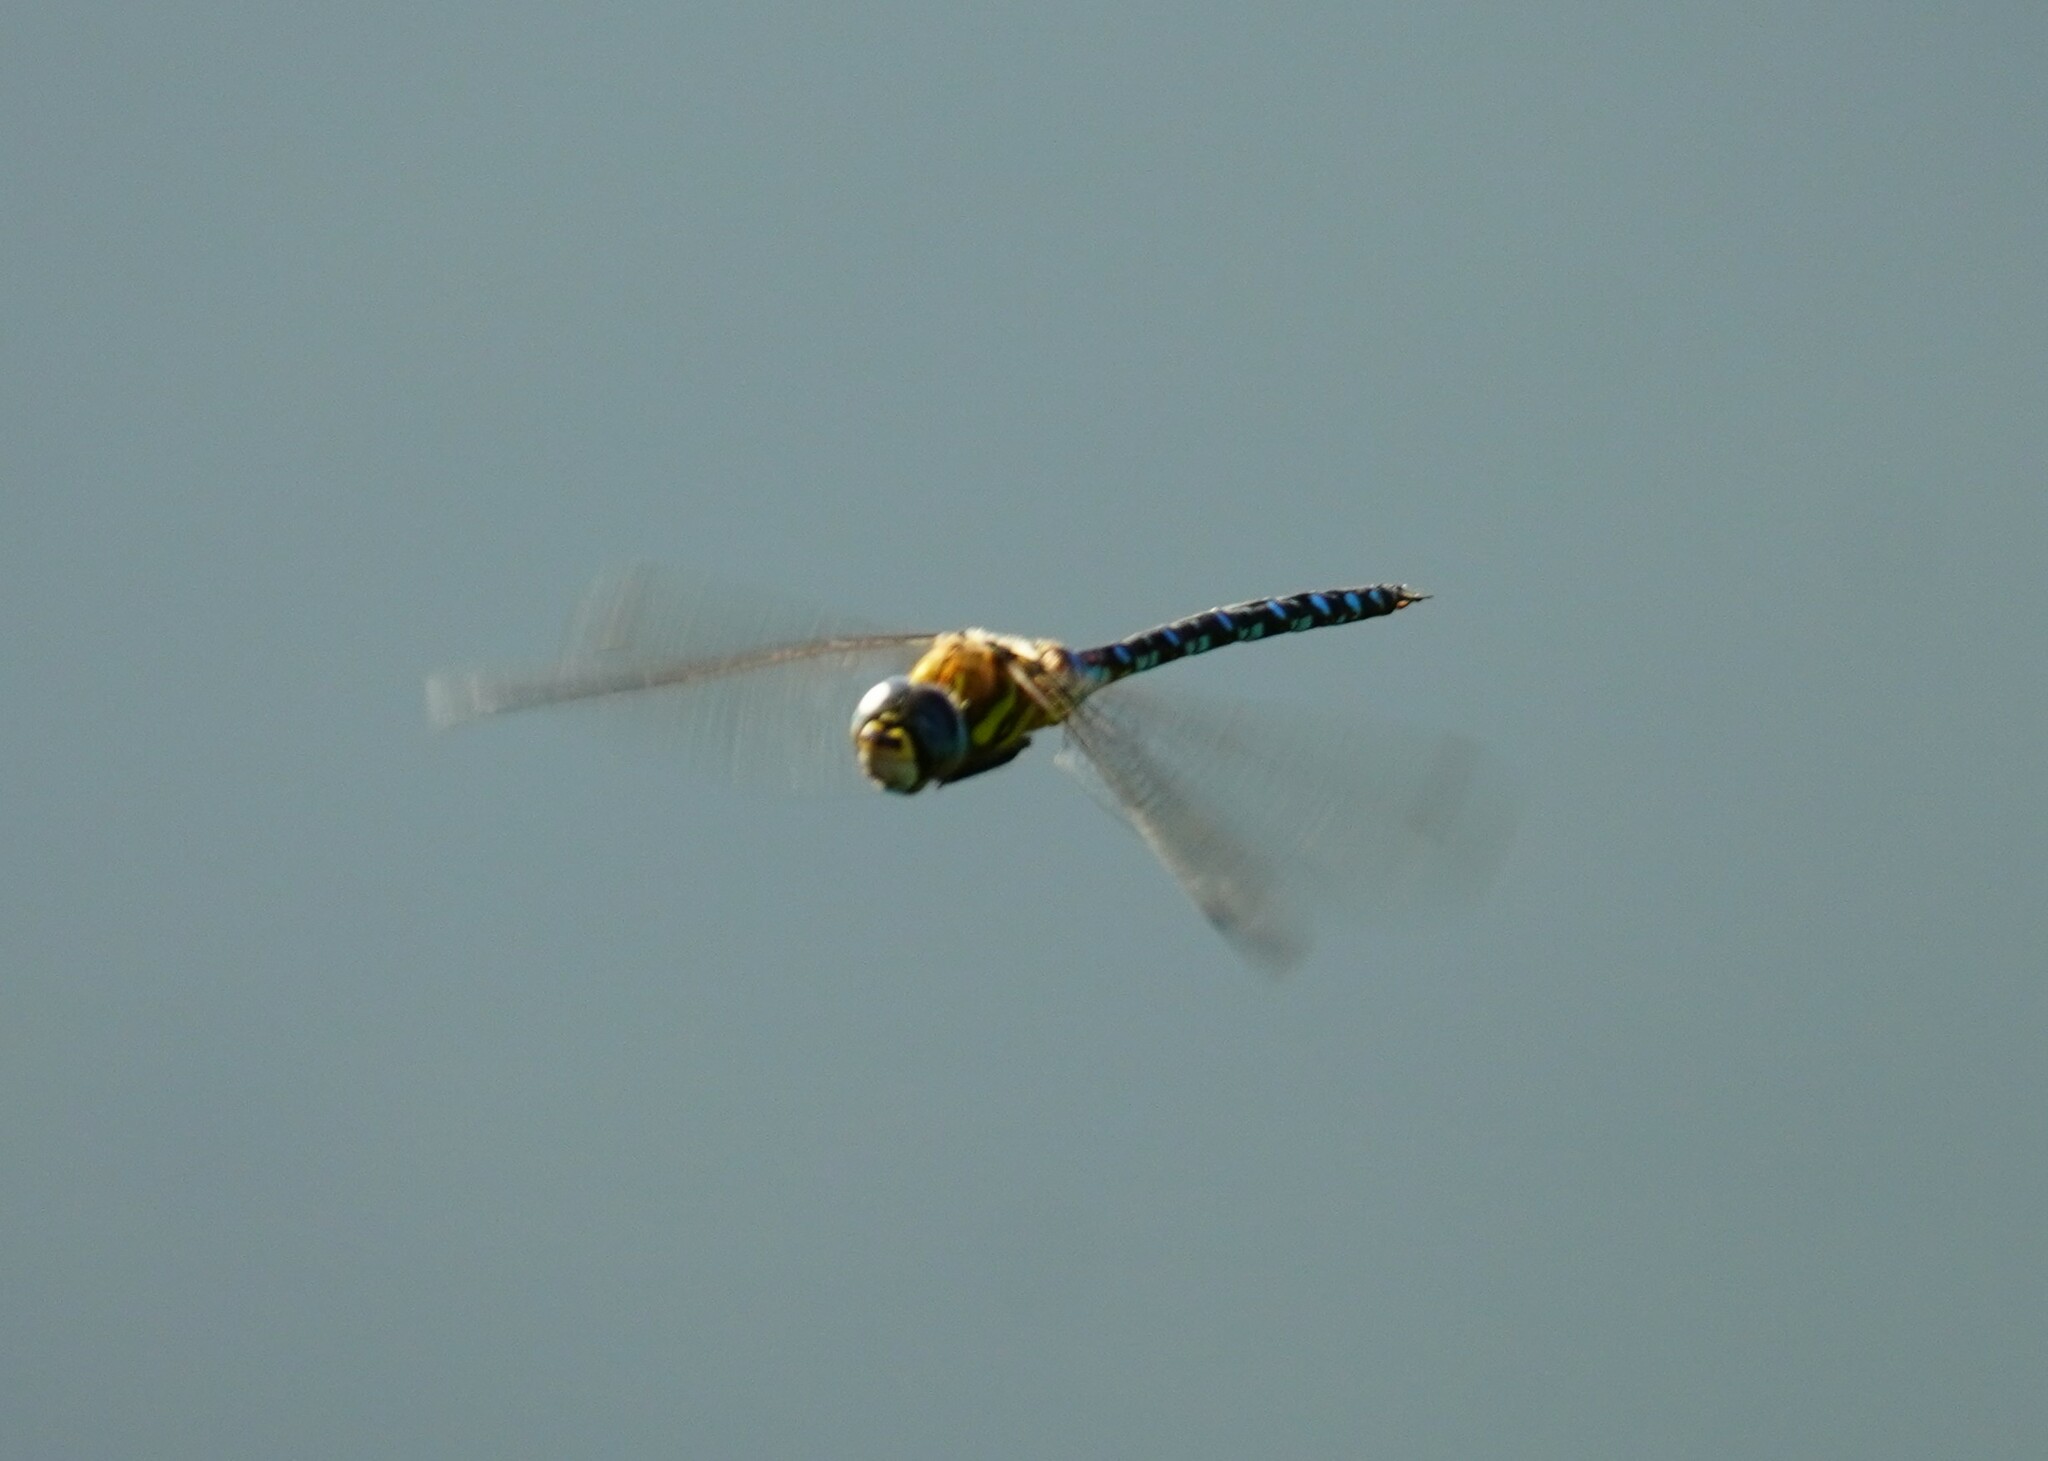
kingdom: Animalia
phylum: Arthropoda
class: Insecta
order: Odonata
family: Aeshnidae
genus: Aeshna
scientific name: Aeshna mixta
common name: Migrant hawker
